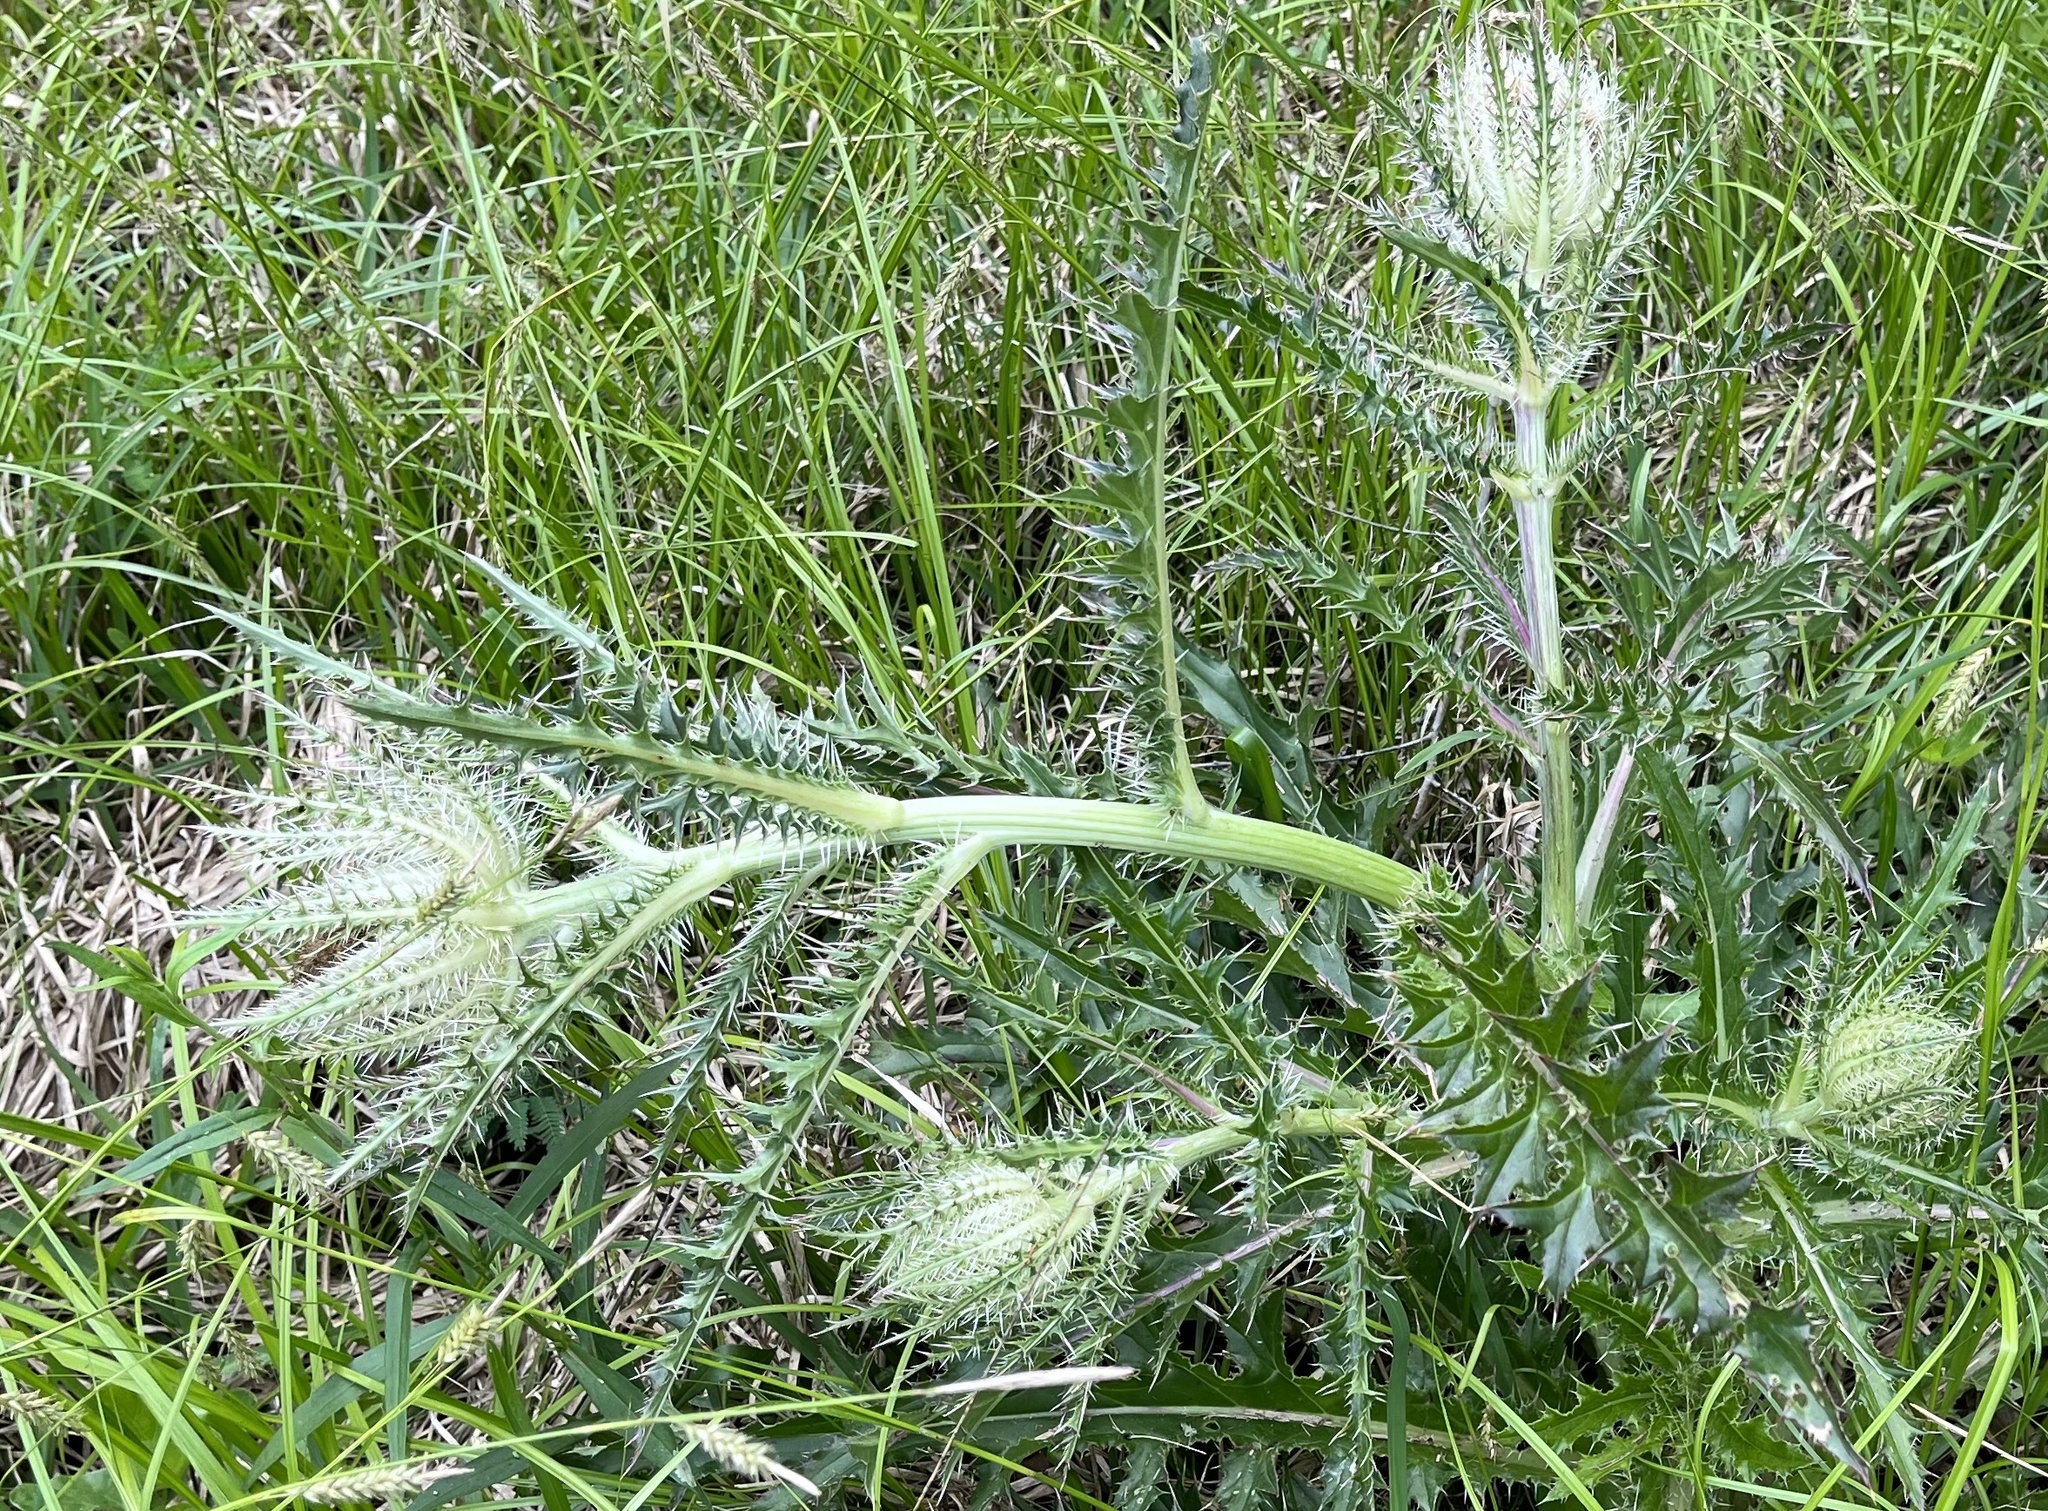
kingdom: Plantae
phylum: Tracheophyta
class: Magnoliopsida
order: Asterales
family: Asteraceae
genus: Cirsium
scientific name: Cirsium horridulum
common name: Bristly thistle
